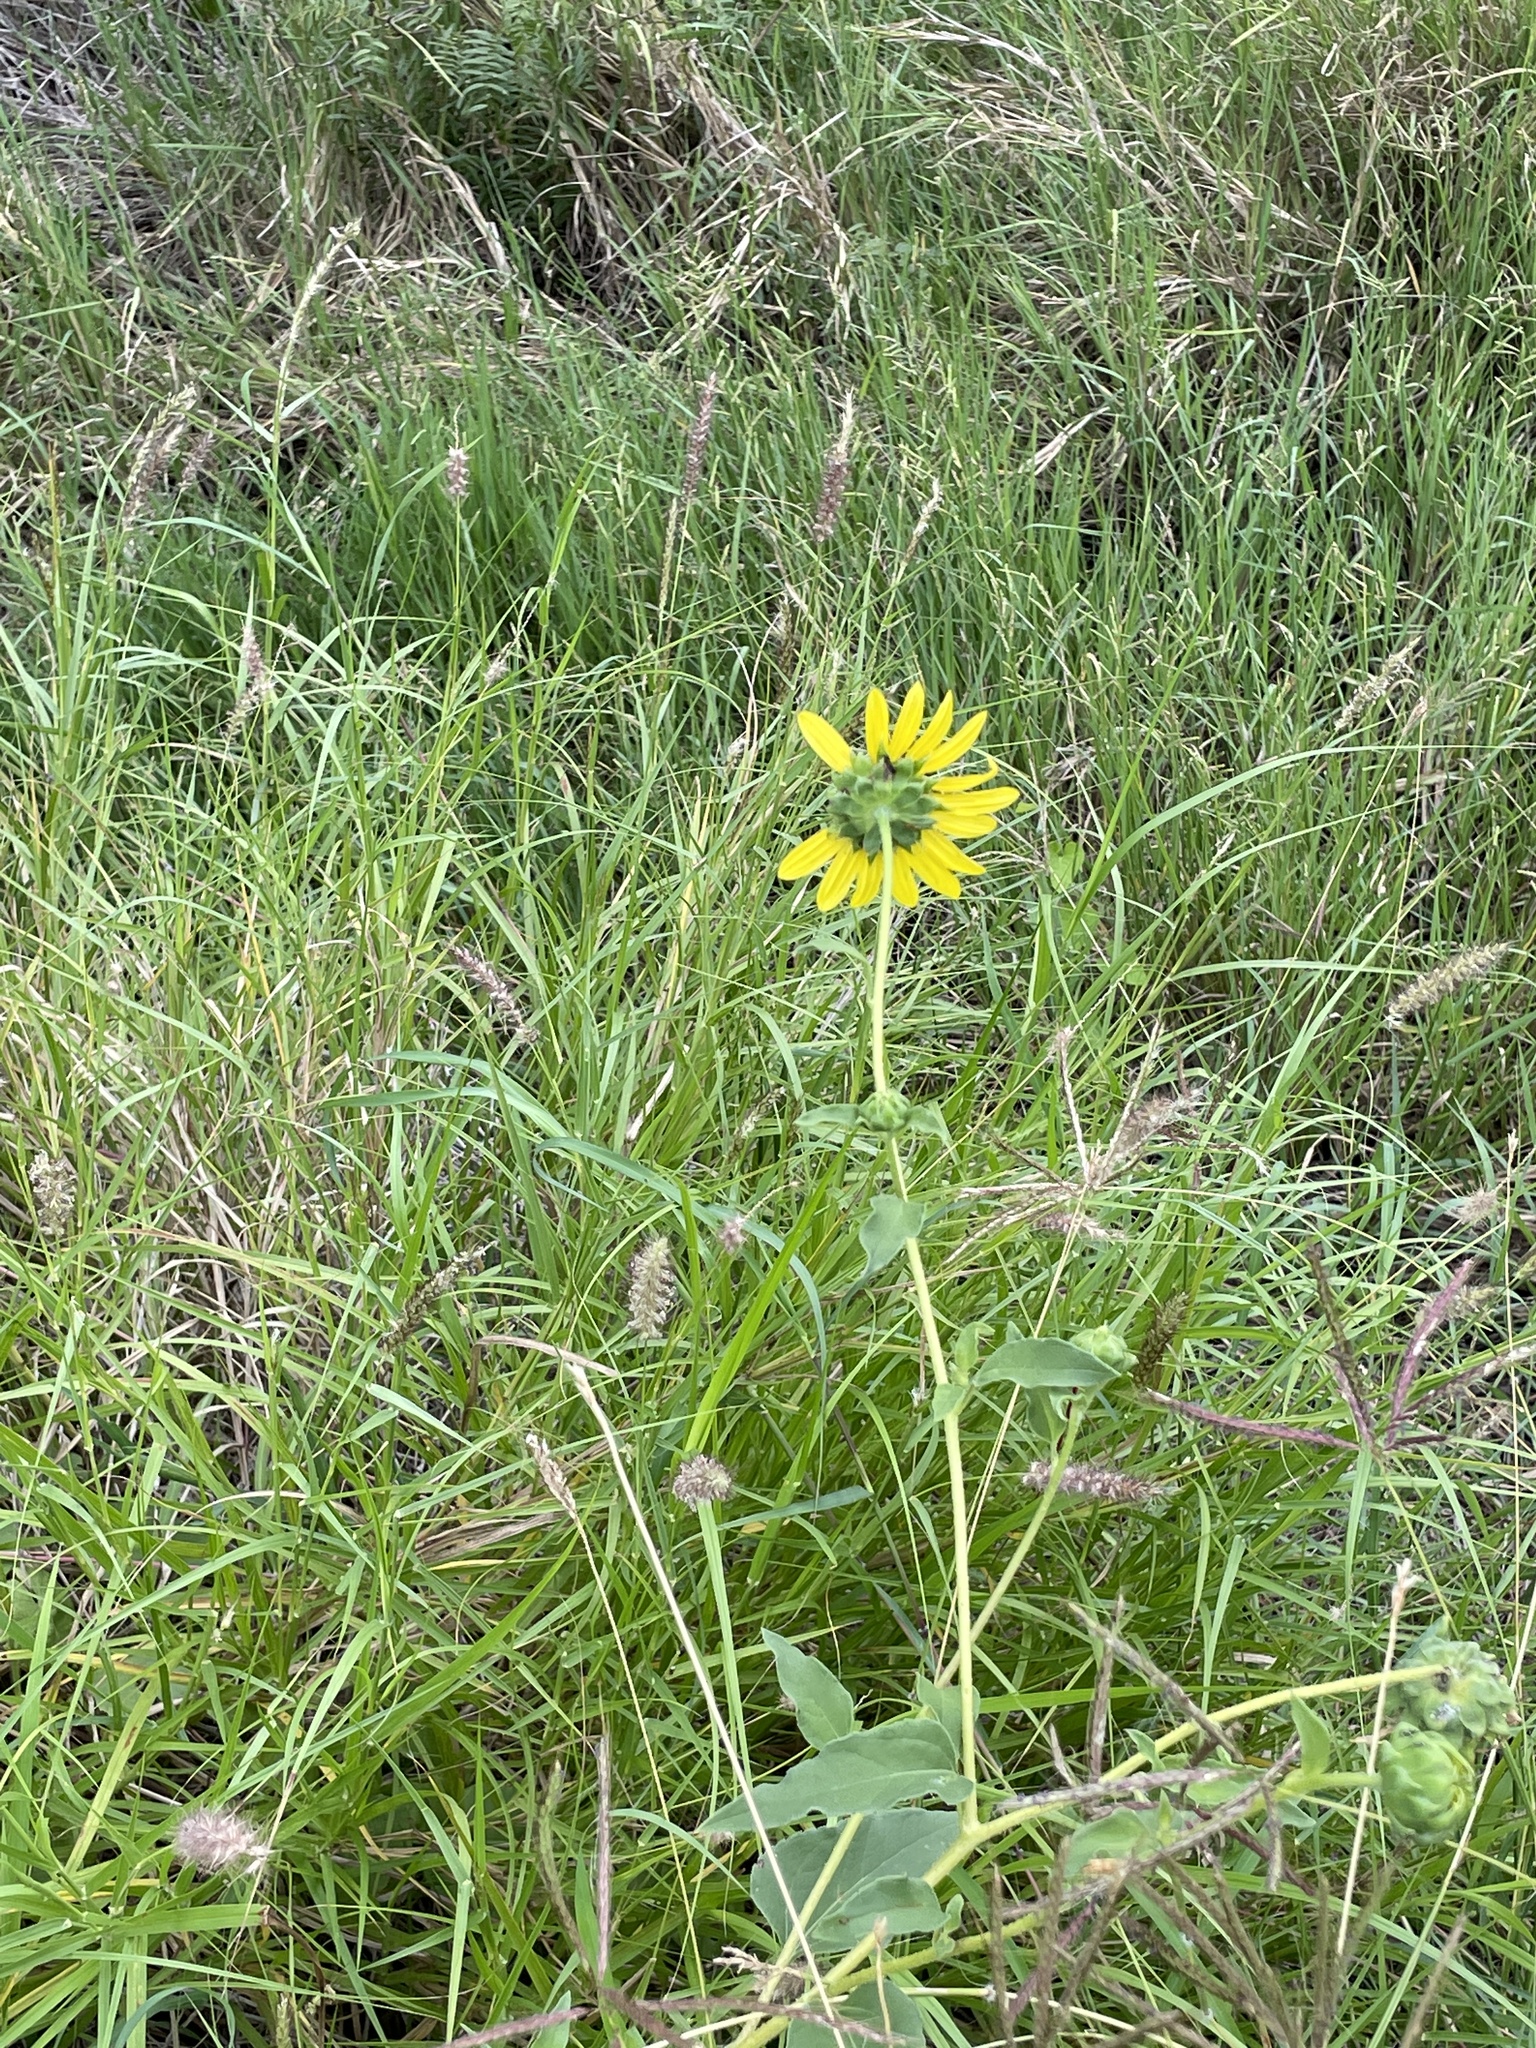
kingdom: Plantae
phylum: Tracheophyta
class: Magnoliopsida
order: Asterales
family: Asteraceae
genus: Helianthus
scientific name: Helianthus annuus
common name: Sunflower
